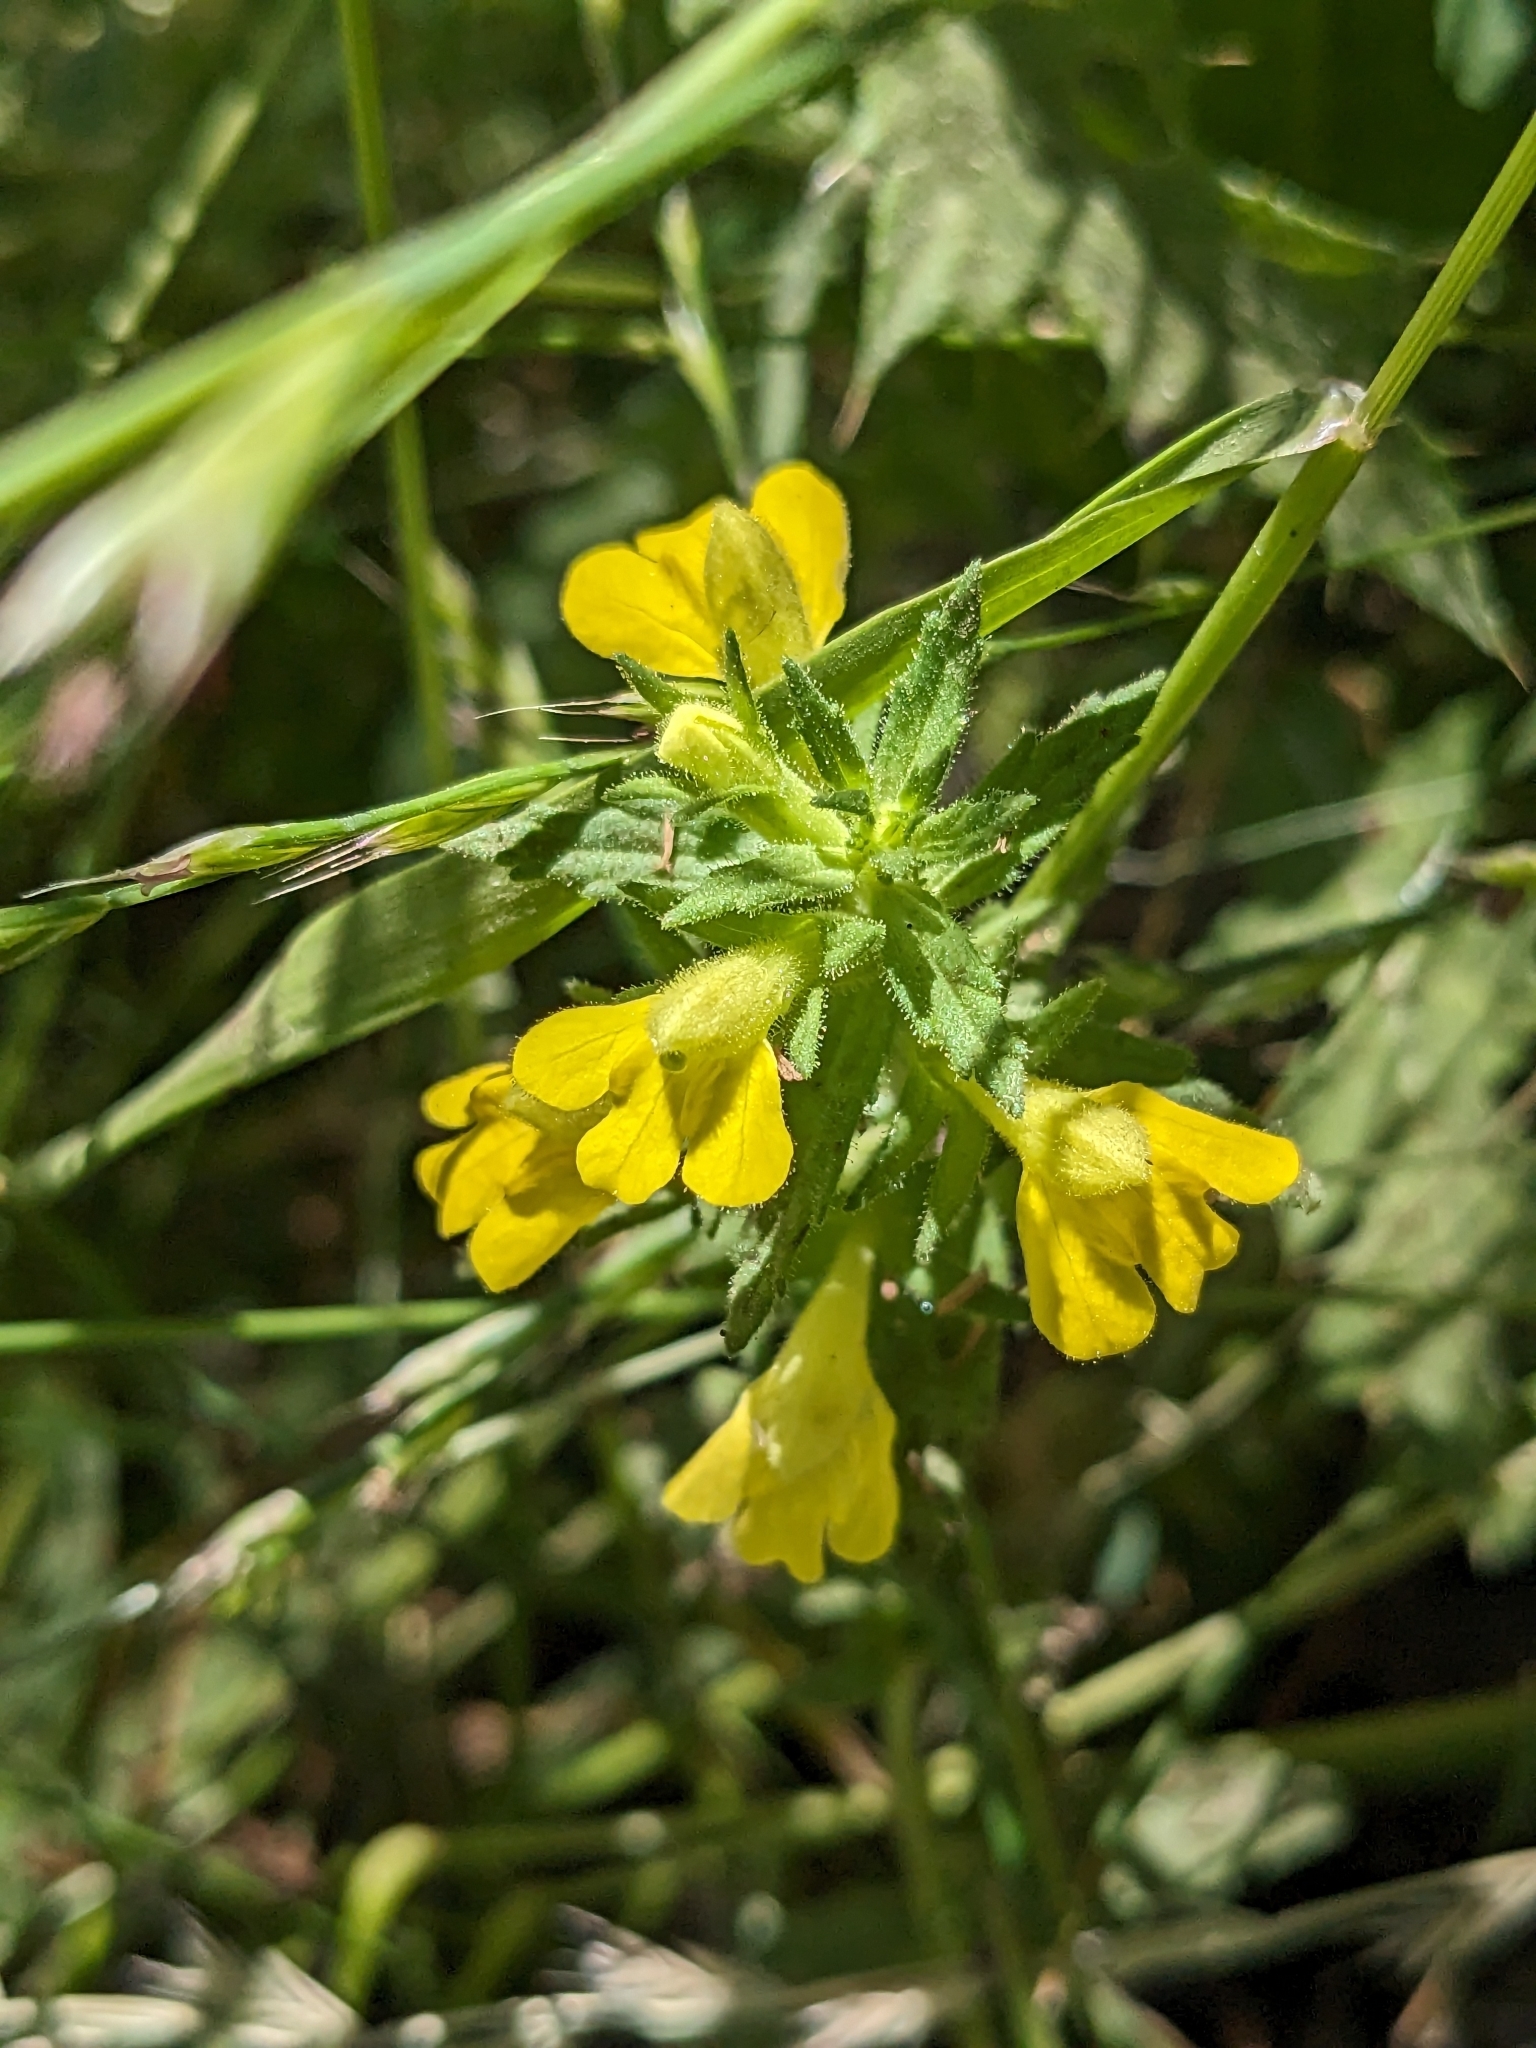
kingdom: Plantae
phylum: Tracheophyta
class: Magnoliopsida
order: Lamiales
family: Orobanchaceae
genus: Bellardia
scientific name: Bellardia viscosa
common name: Sticky parentucellia
